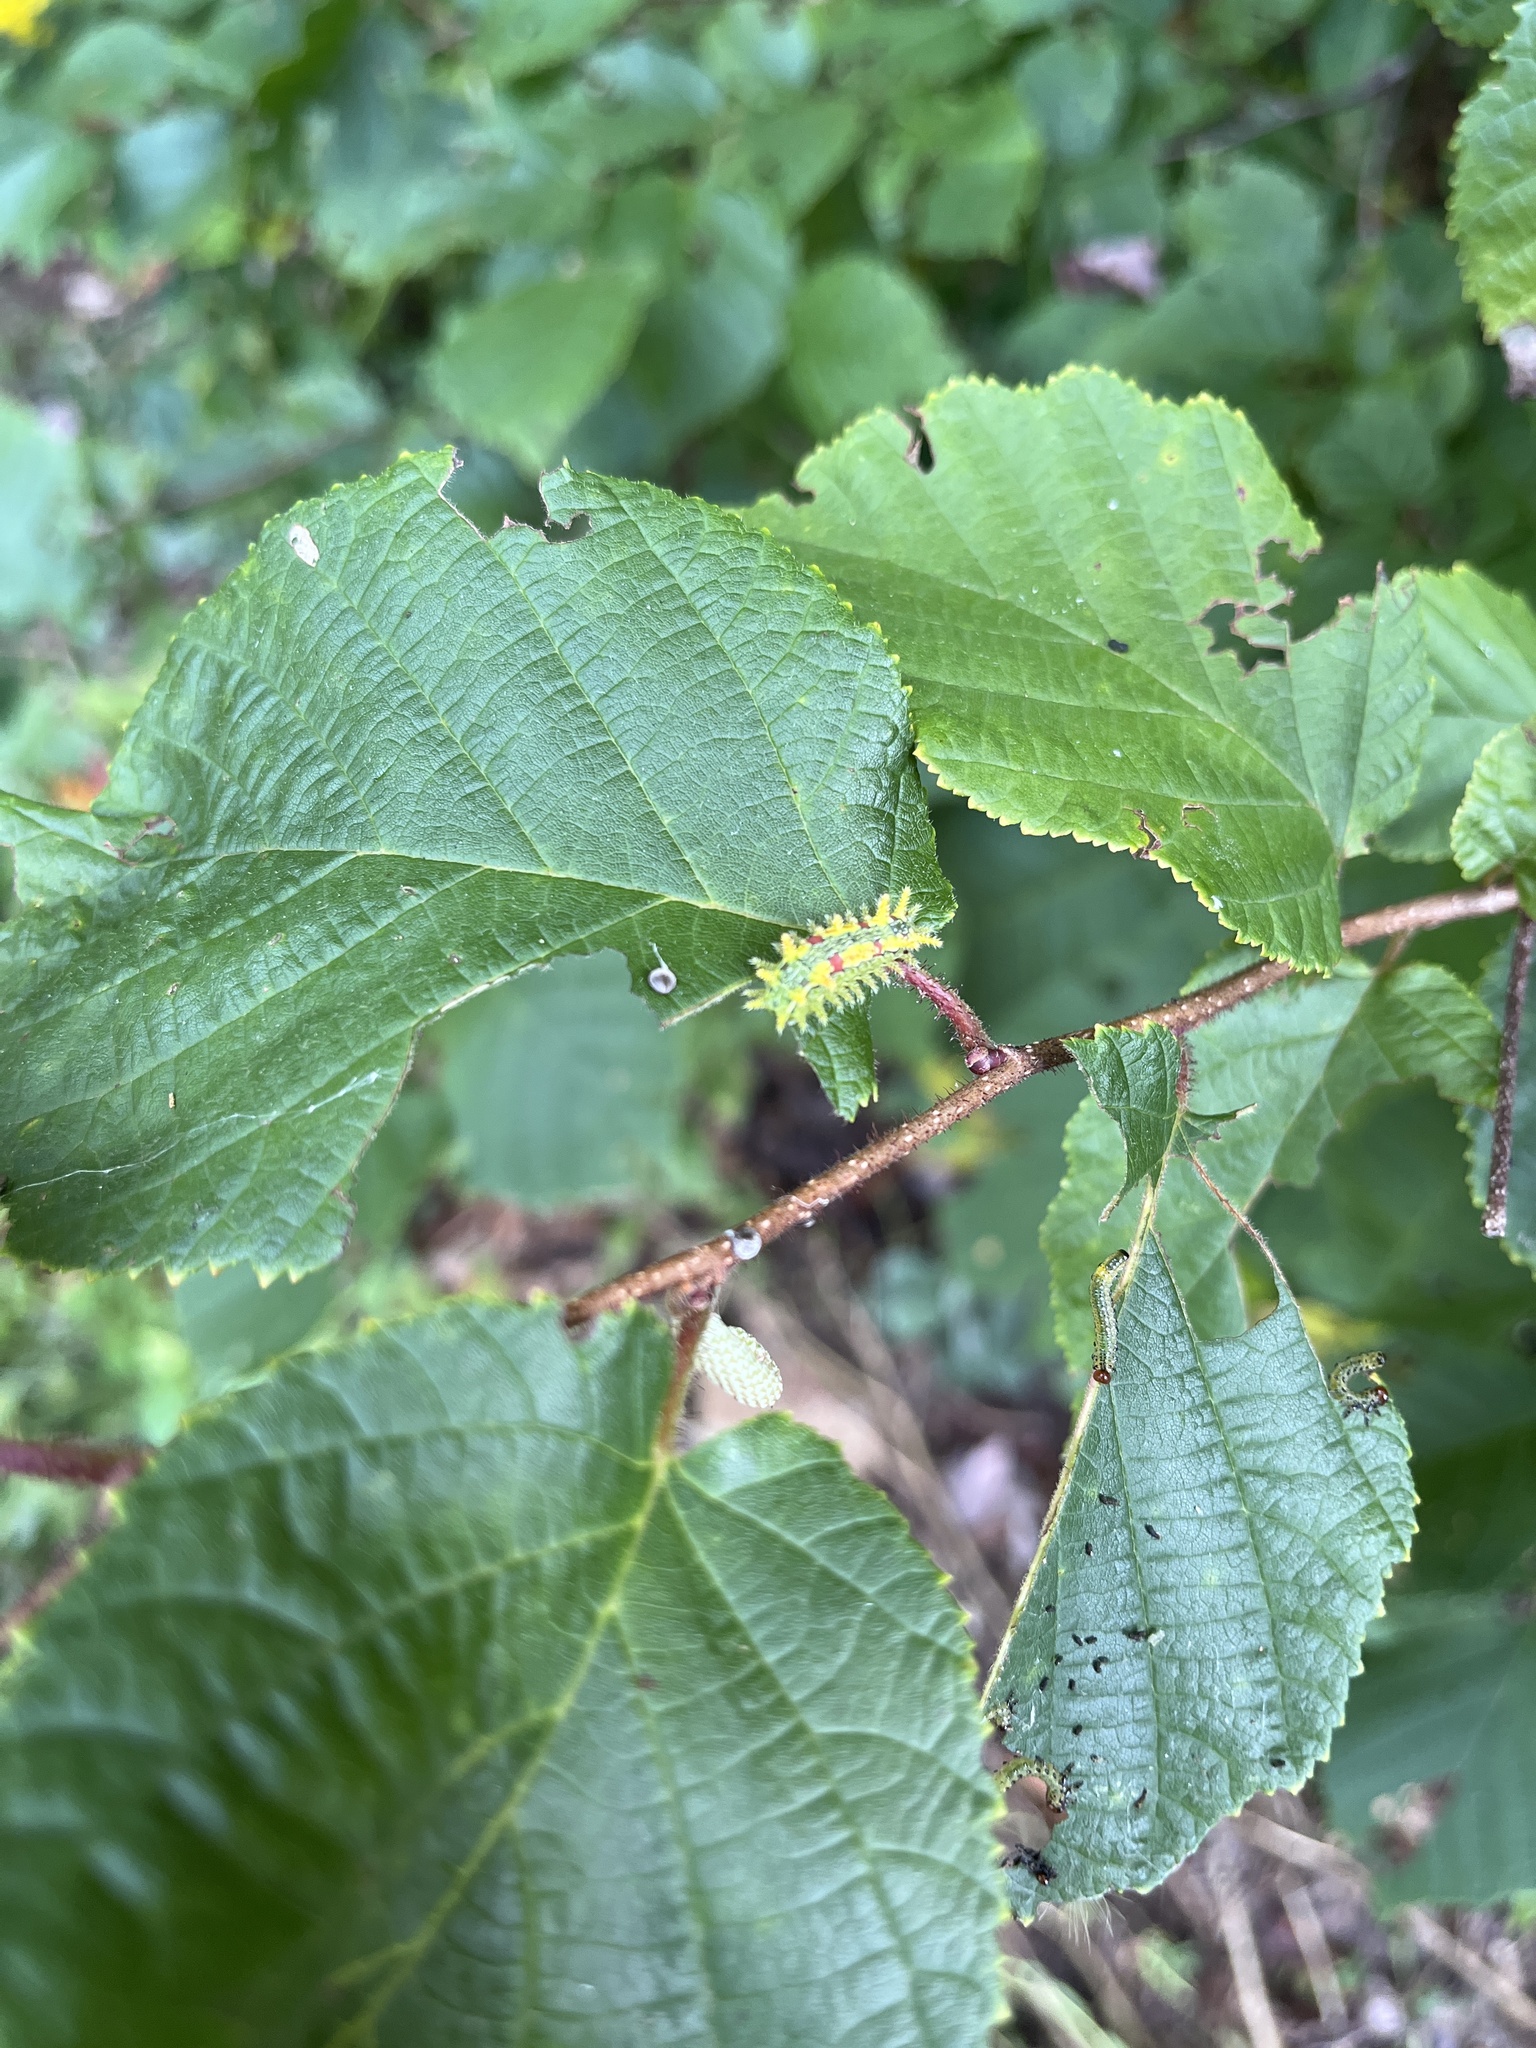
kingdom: Animalia
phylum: Arthropoda
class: Insecta
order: Lepidoptera
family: Limacodidae
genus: Euclea
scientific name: Euclea delphinii
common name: Spiny oak-slug moth
